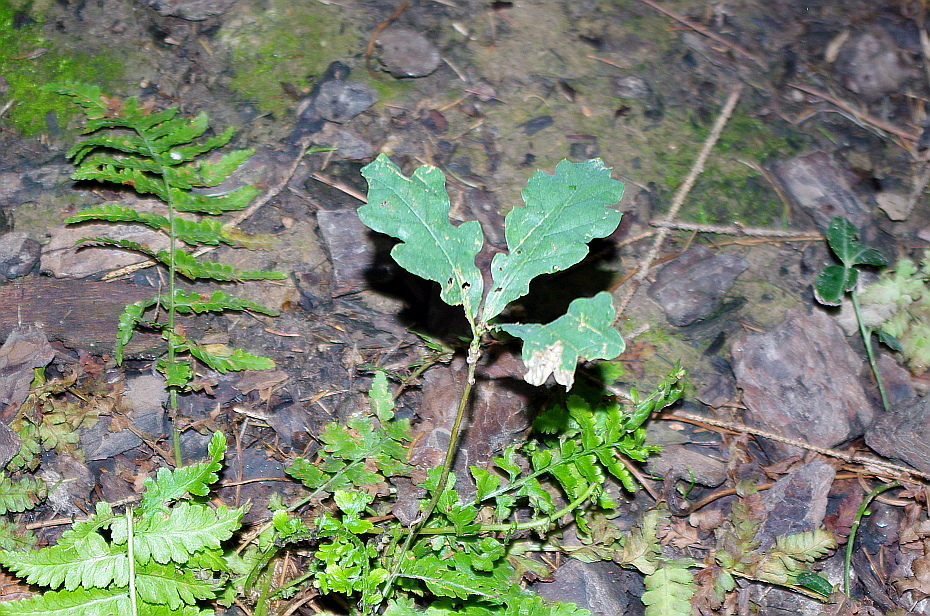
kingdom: Plantae
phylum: Tracheophyta
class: Magnoliopsida
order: Fagales
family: Fagaceae
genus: Quercus
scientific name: Quercus robur
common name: Pedunculate oak
